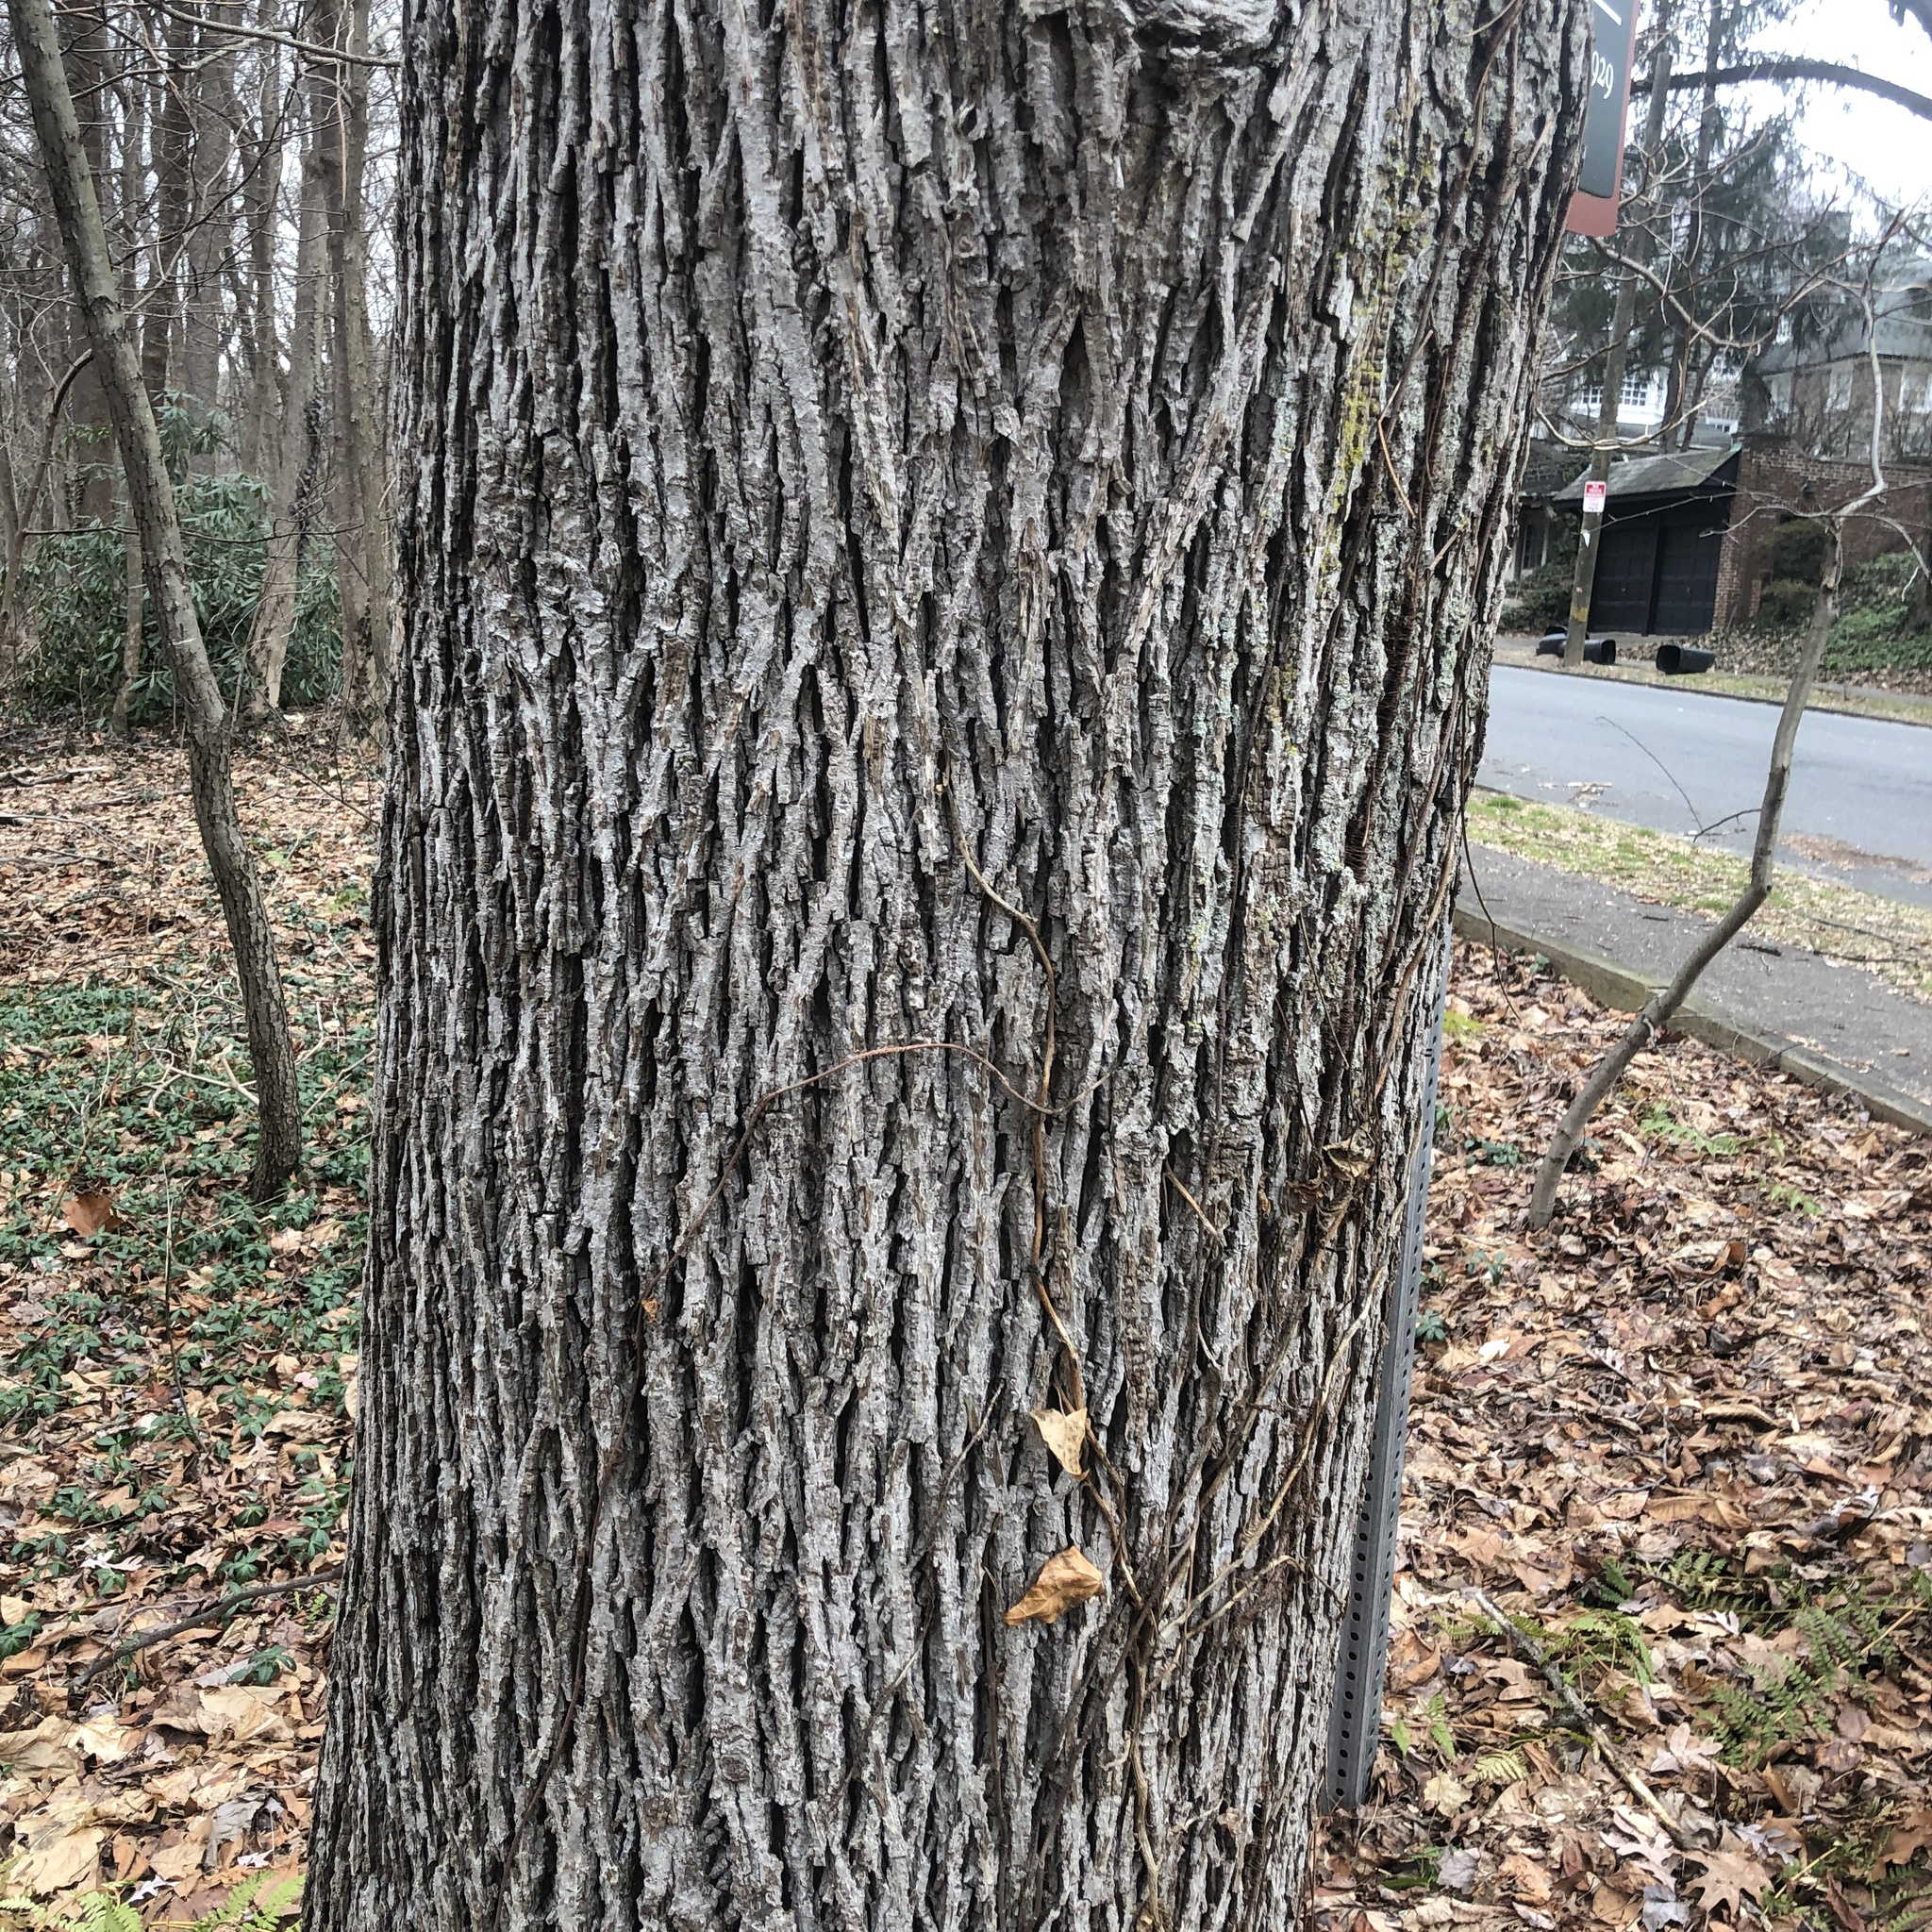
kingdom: Plantae
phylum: Tracheophyta
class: Magnoliopsida
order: Fagales
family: Juglandaceae
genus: Carya
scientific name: Carya alba
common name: Mockernut hickory
